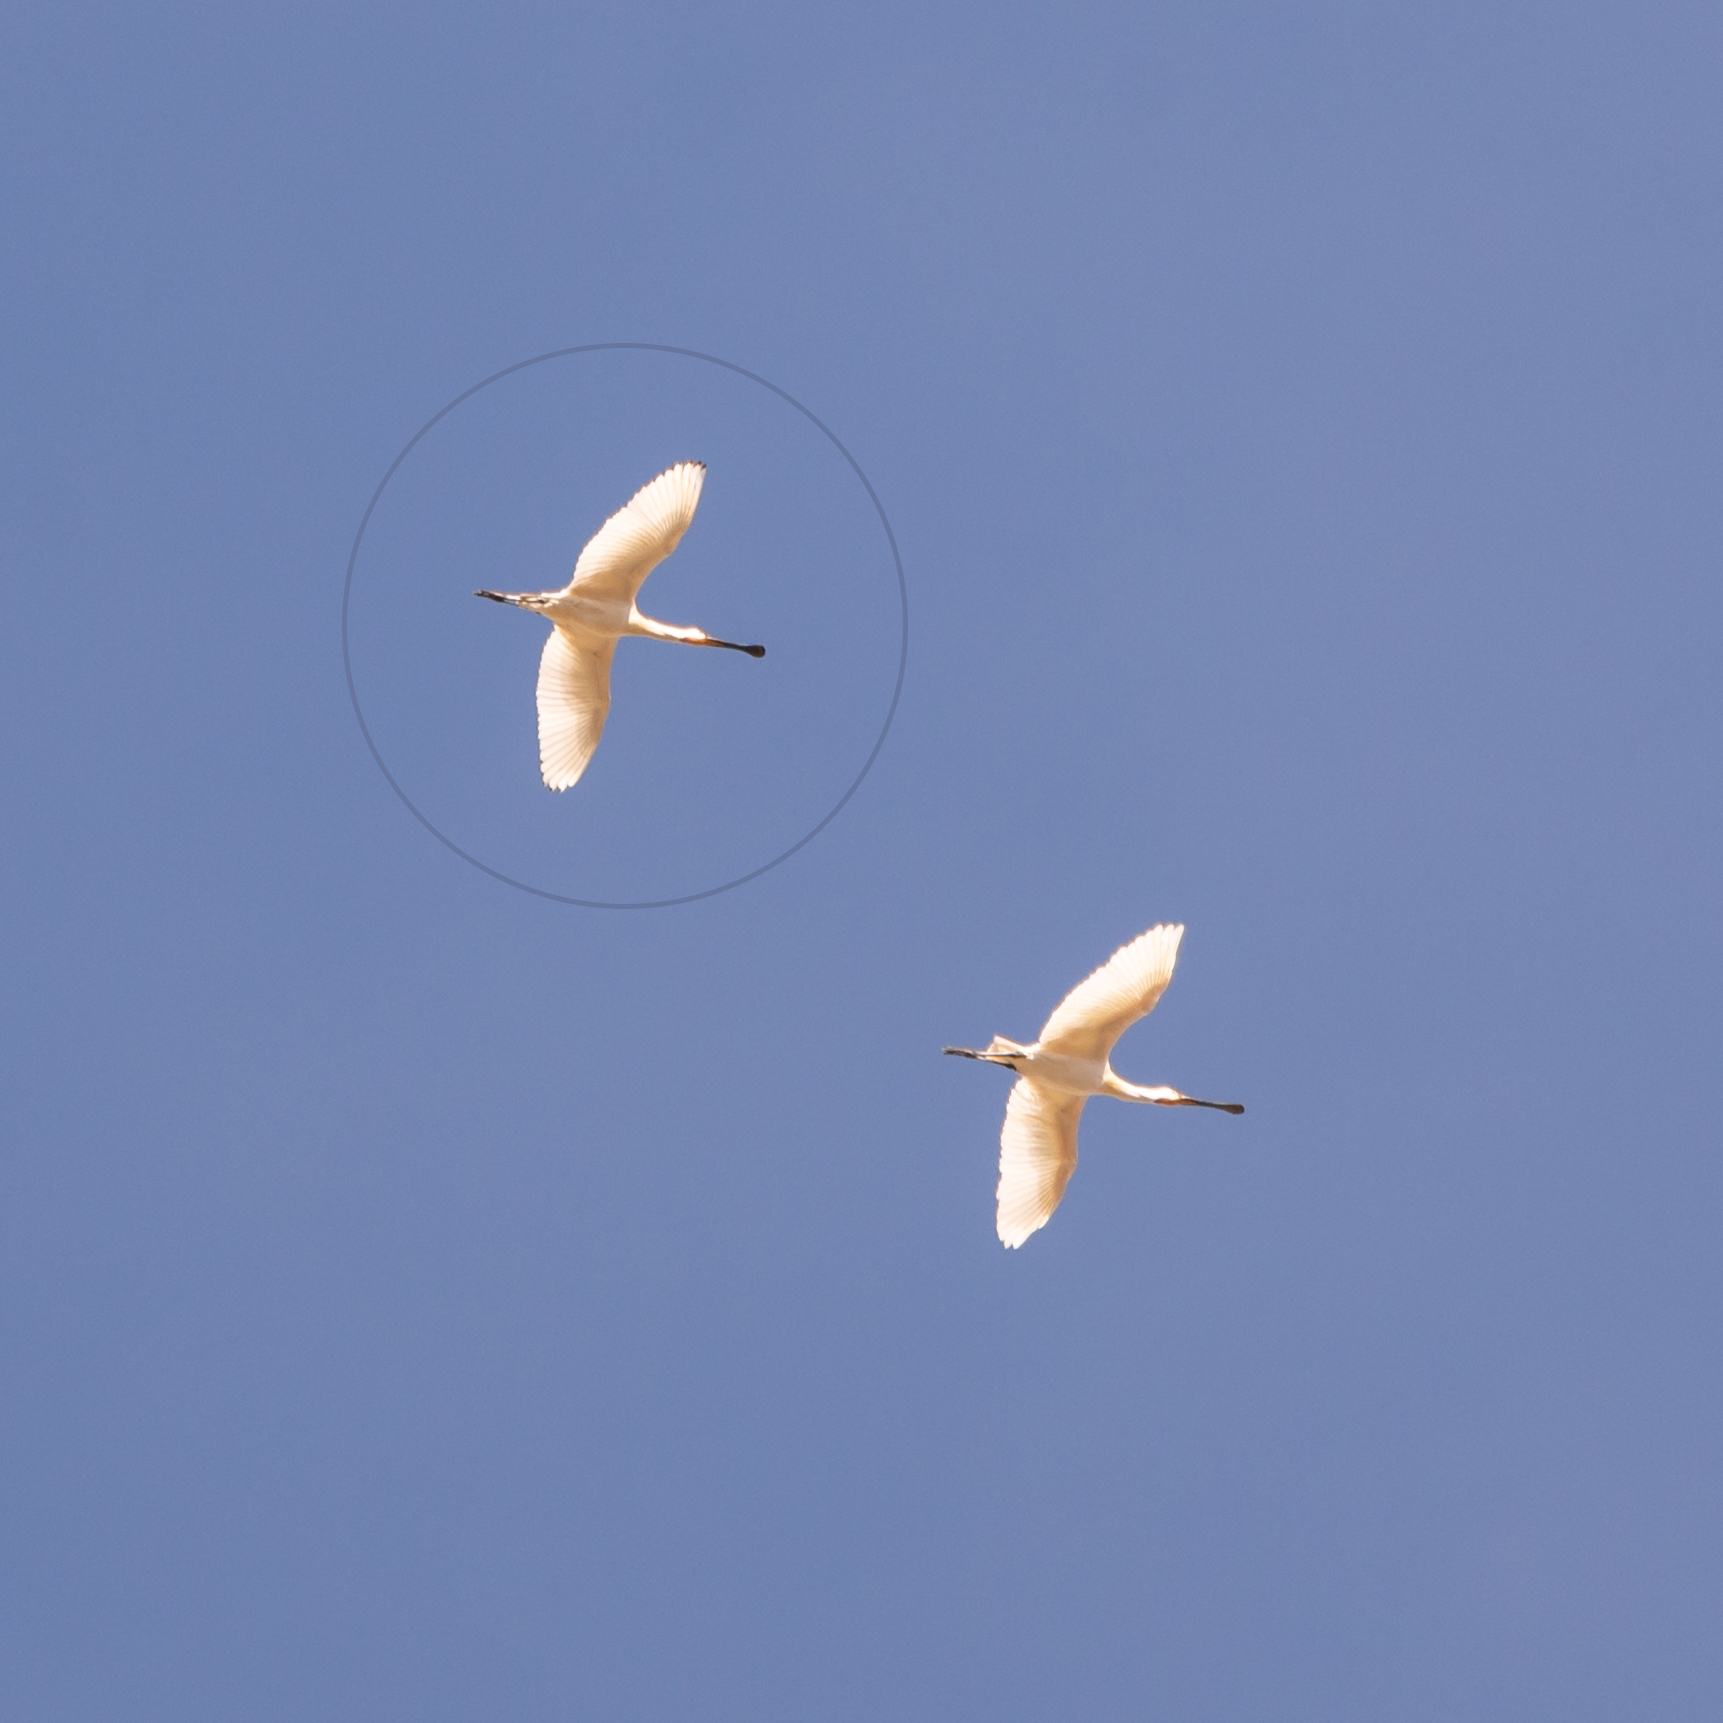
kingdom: Animalia
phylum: Chordata
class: Aves
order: Pelecaniformes
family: Threskiornithidae
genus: Platalea
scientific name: Platalea leucorodia
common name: Eurasian spoonbill
